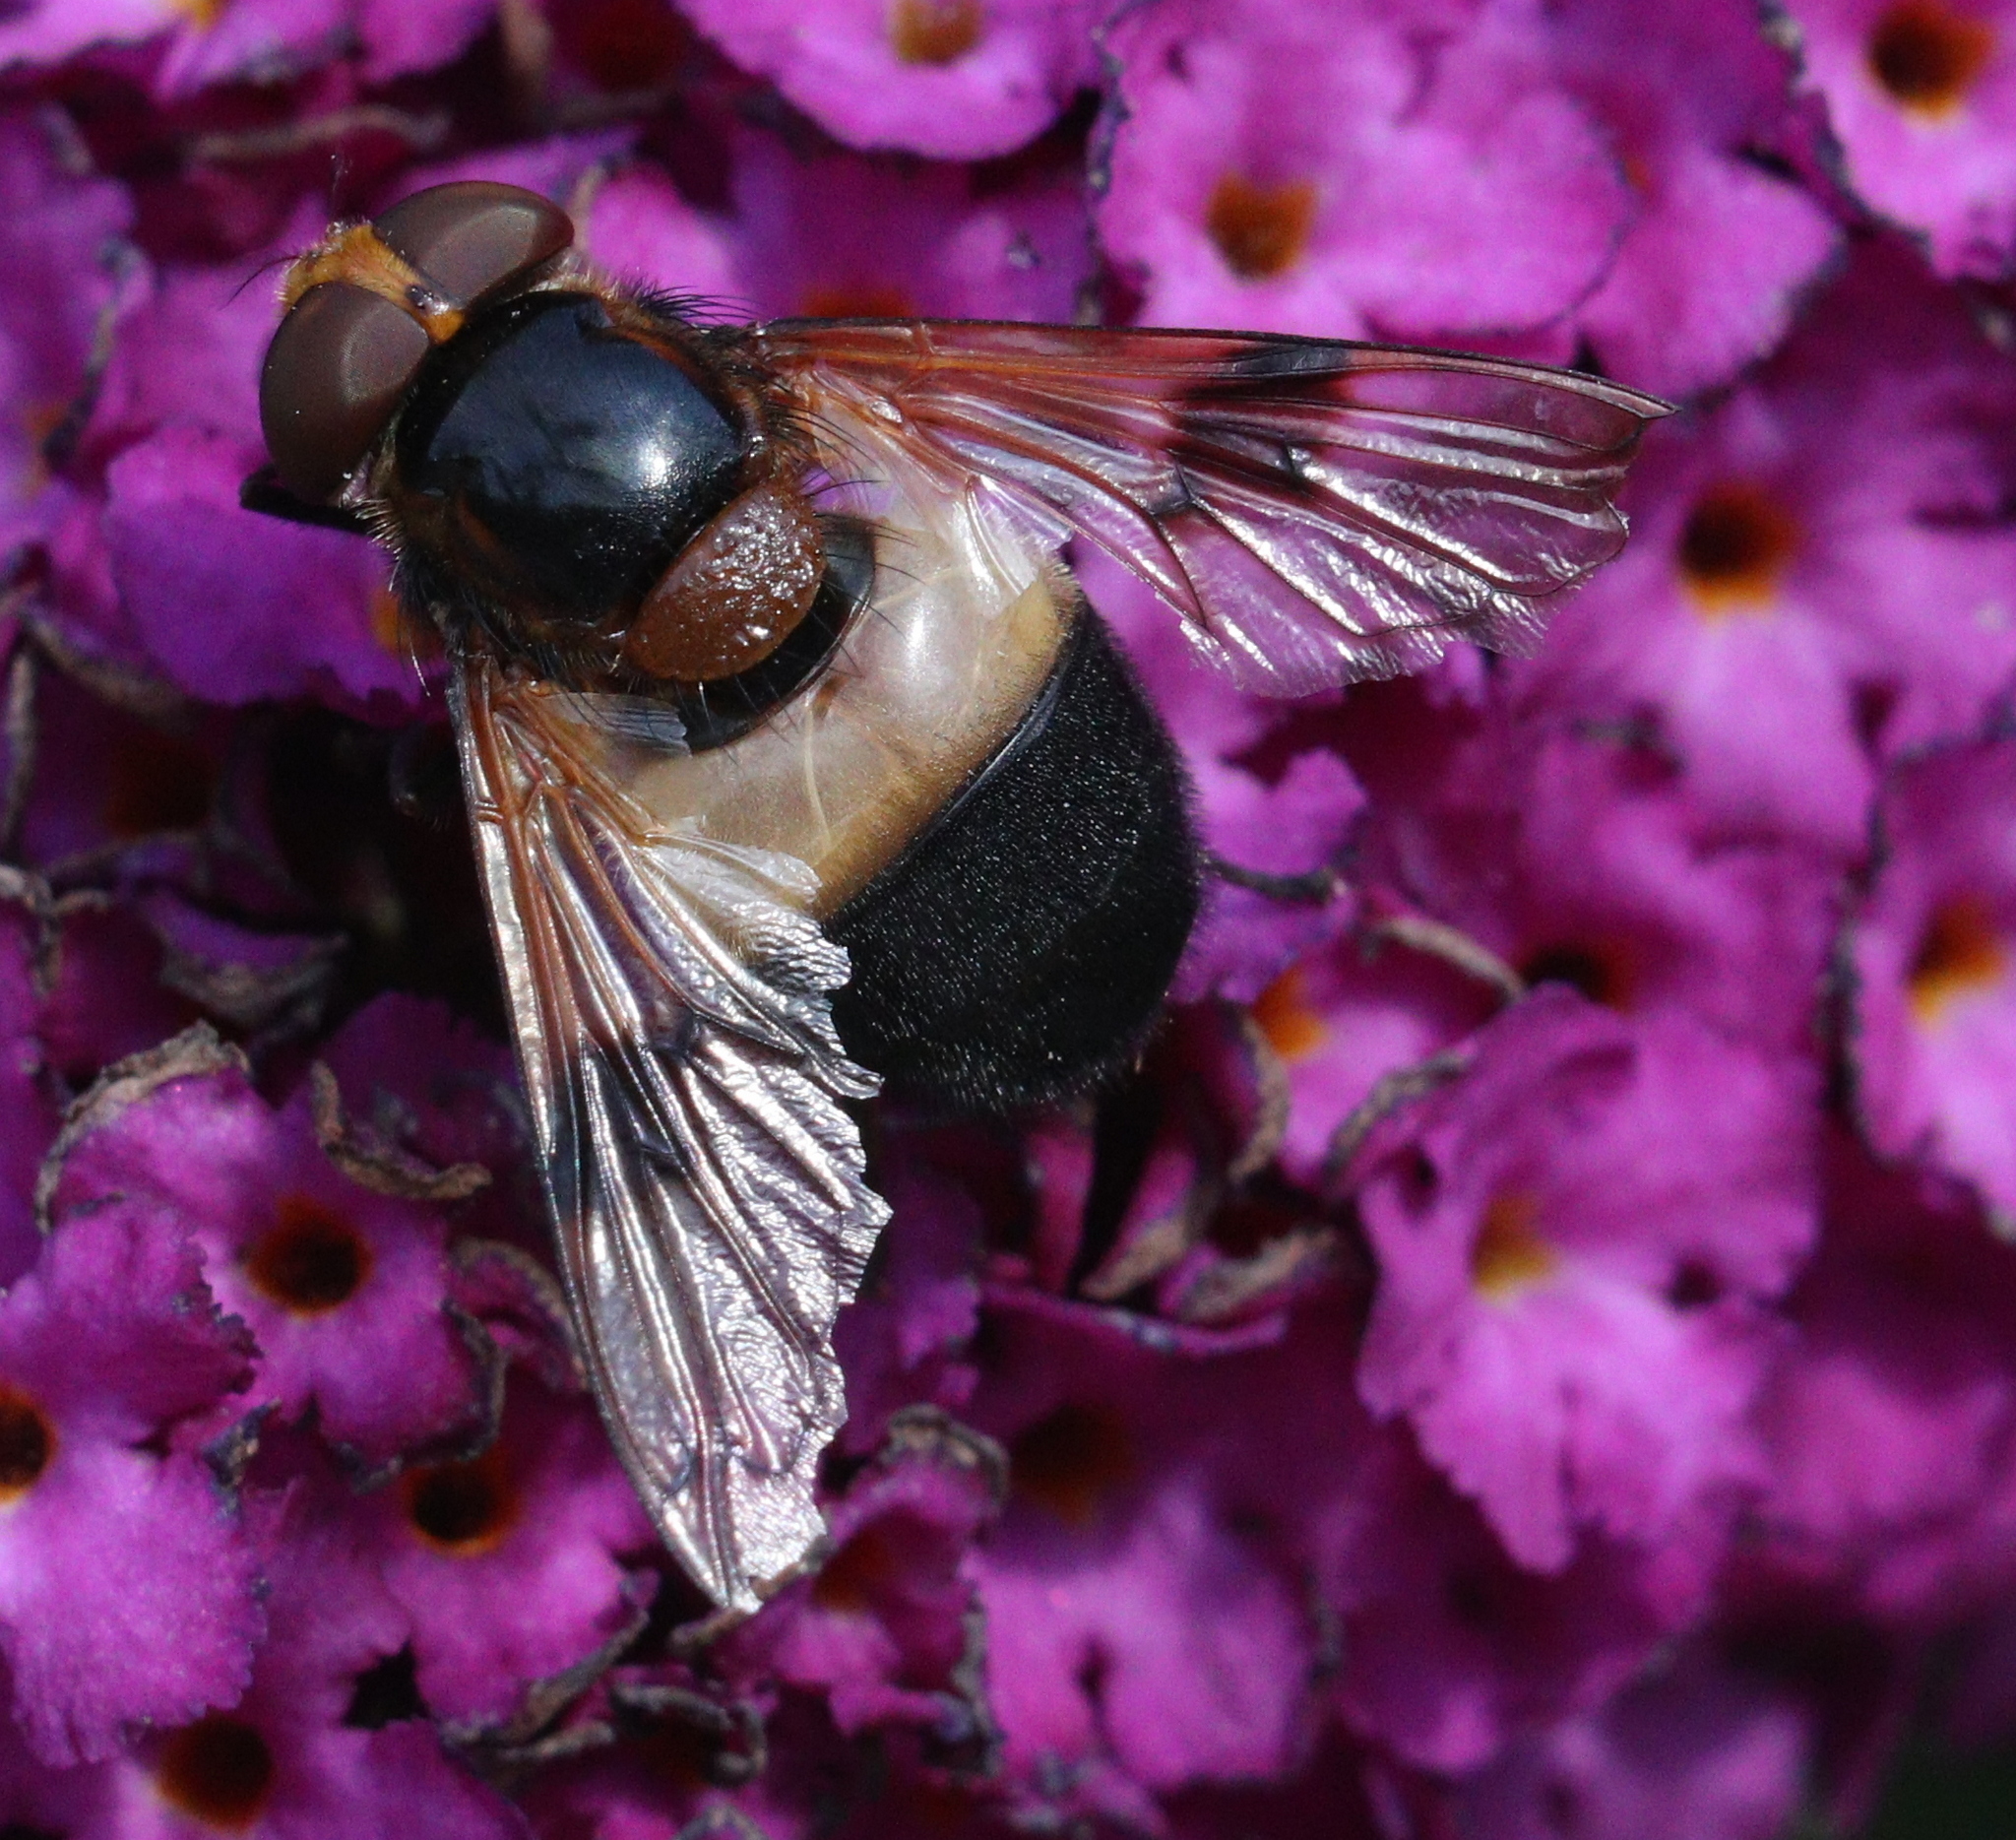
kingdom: Animalia
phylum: Arthropoda
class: Insecta
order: Diptera
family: Syrphidae
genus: Volucella
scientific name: Volucella pellucens
